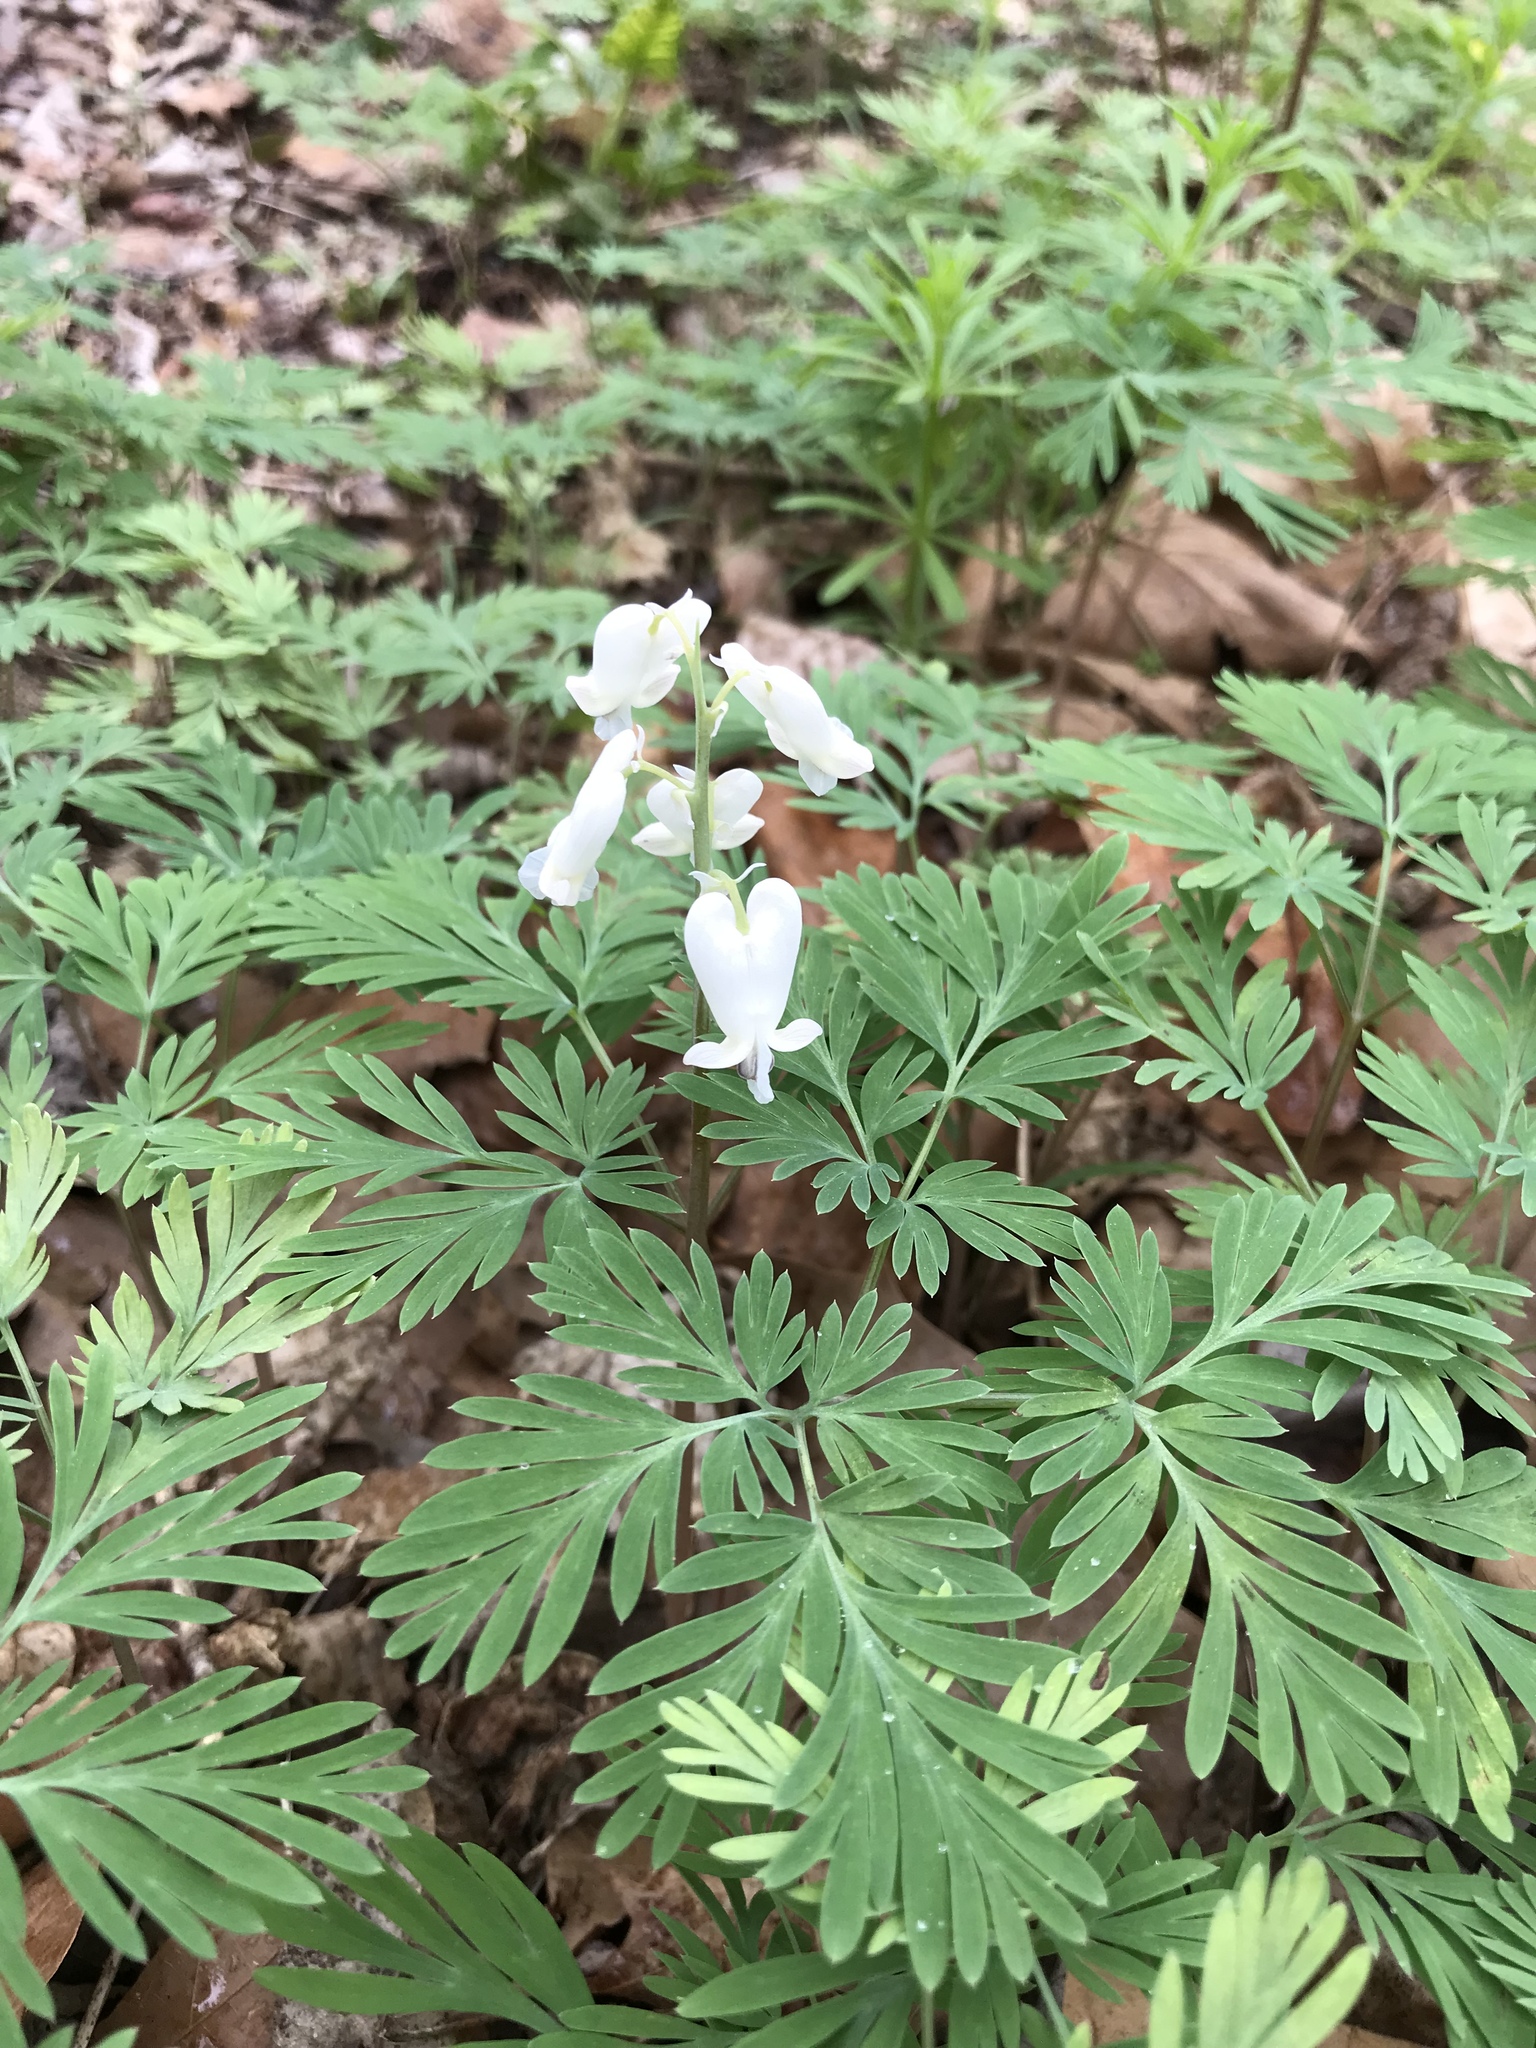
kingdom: Plantae
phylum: Tracheophyta
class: Magnoliopsida
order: Ranunculales
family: Papaveraceae
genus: Dicentra
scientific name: Dicentra canadensis
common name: Squirrel-corn
